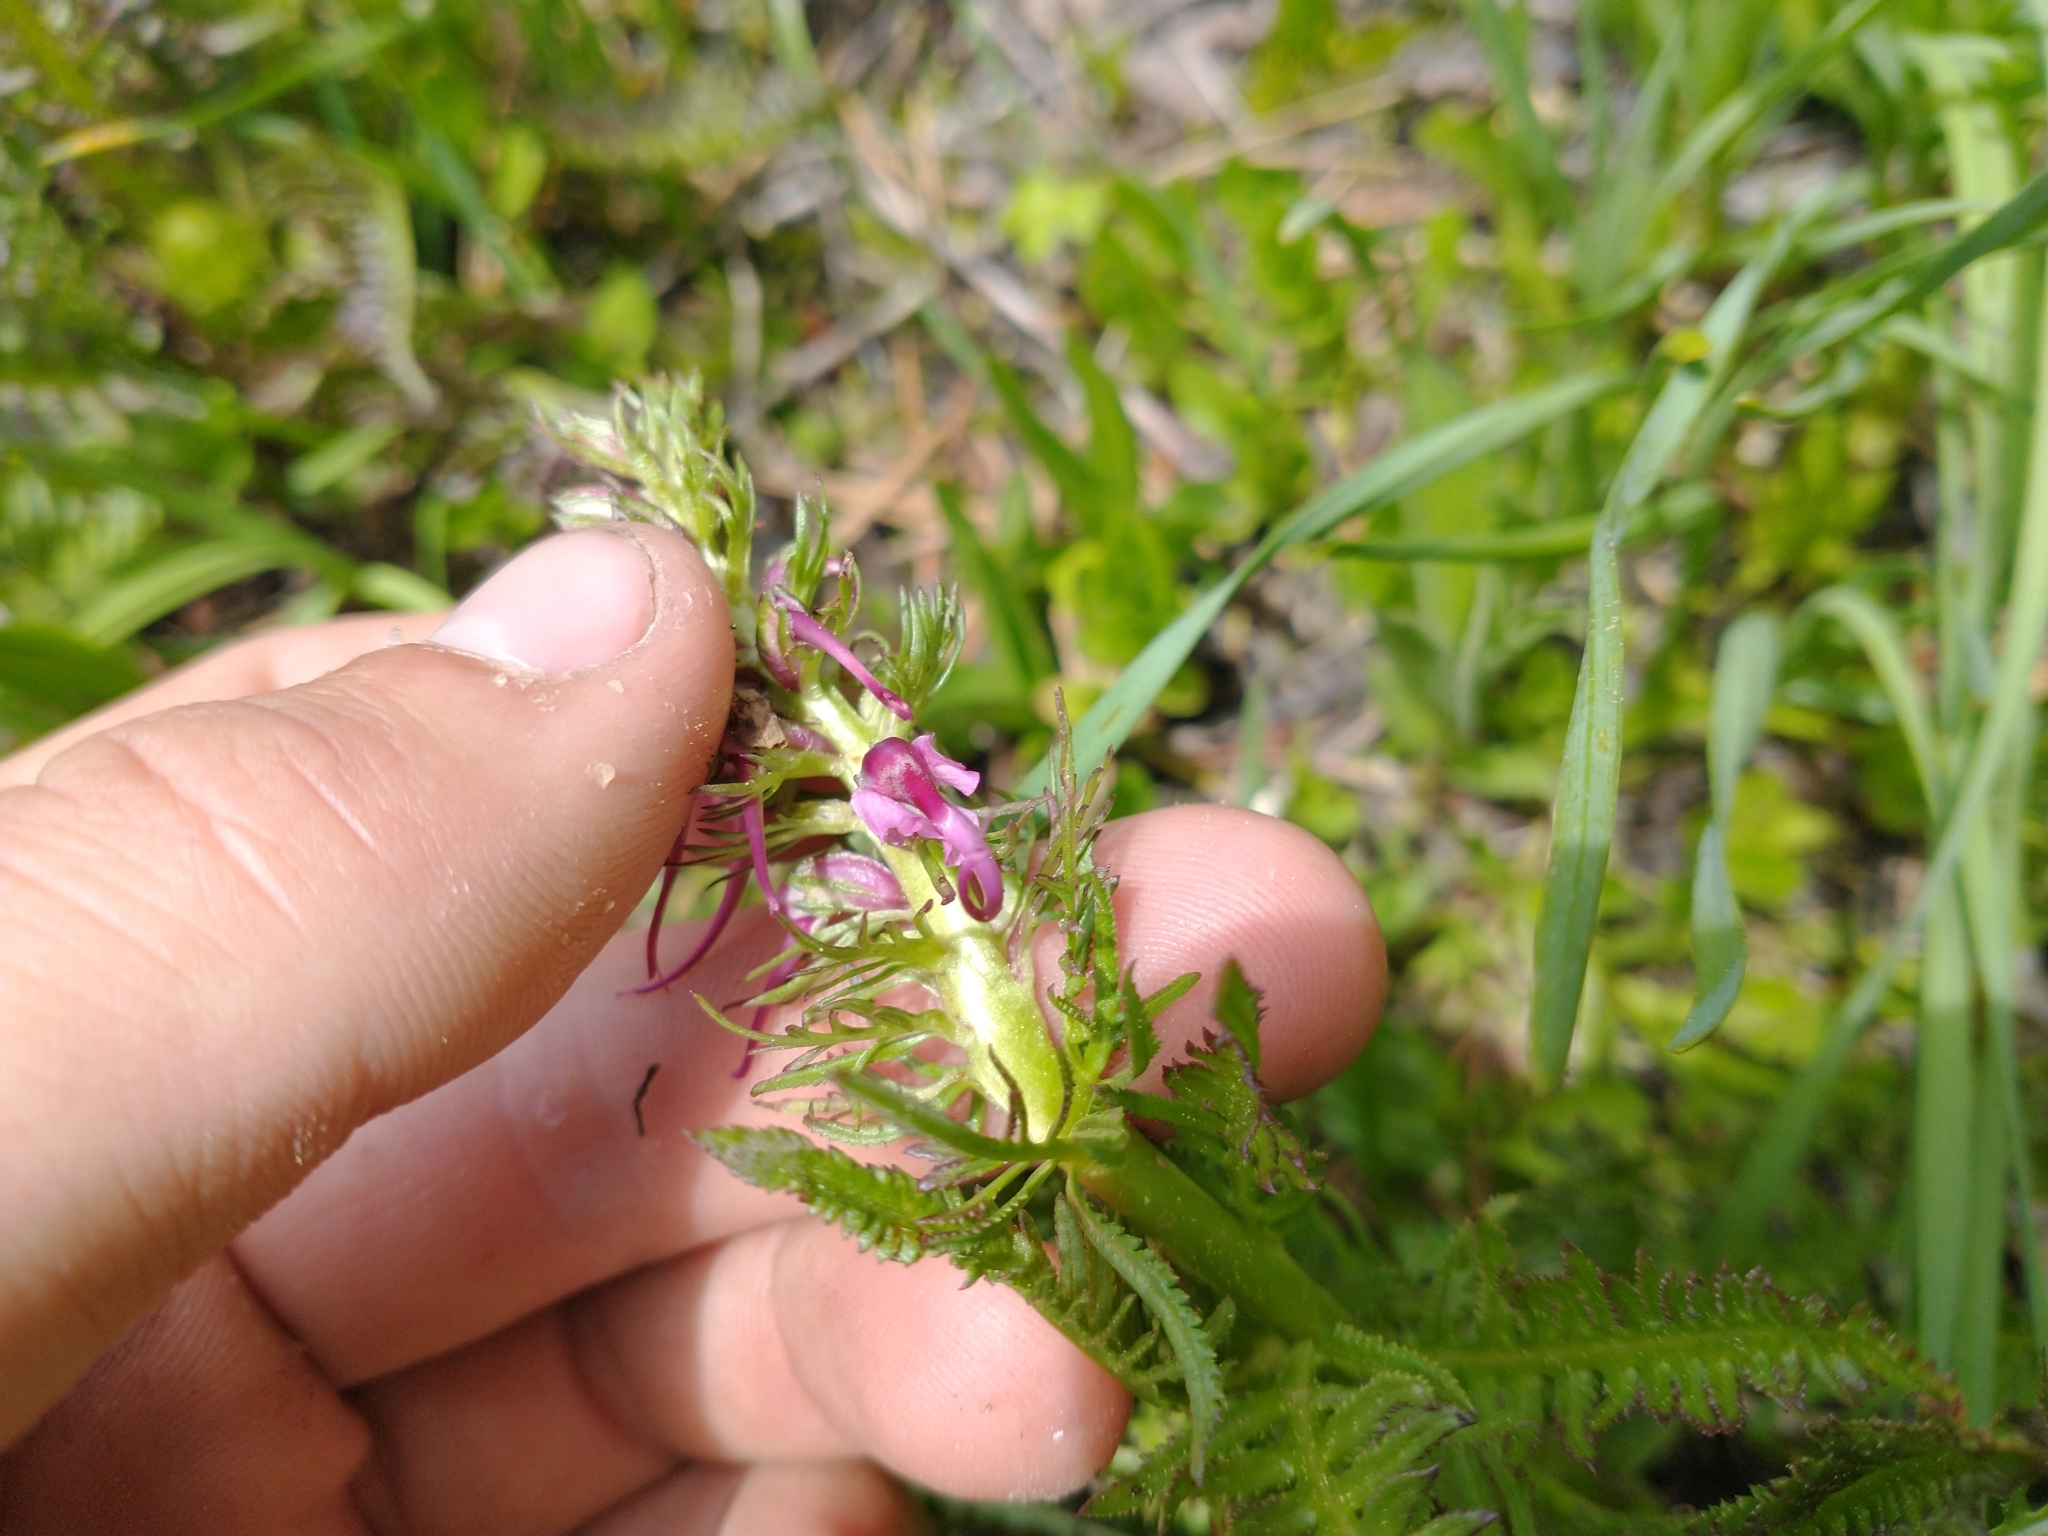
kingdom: Plantae
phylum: Tracheophyta
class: Magnoliopsida
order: Lamiales
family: Orobanchaceae
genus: Pedicularis
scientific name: Pedicularis groenlandica
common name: Elephant's-head
